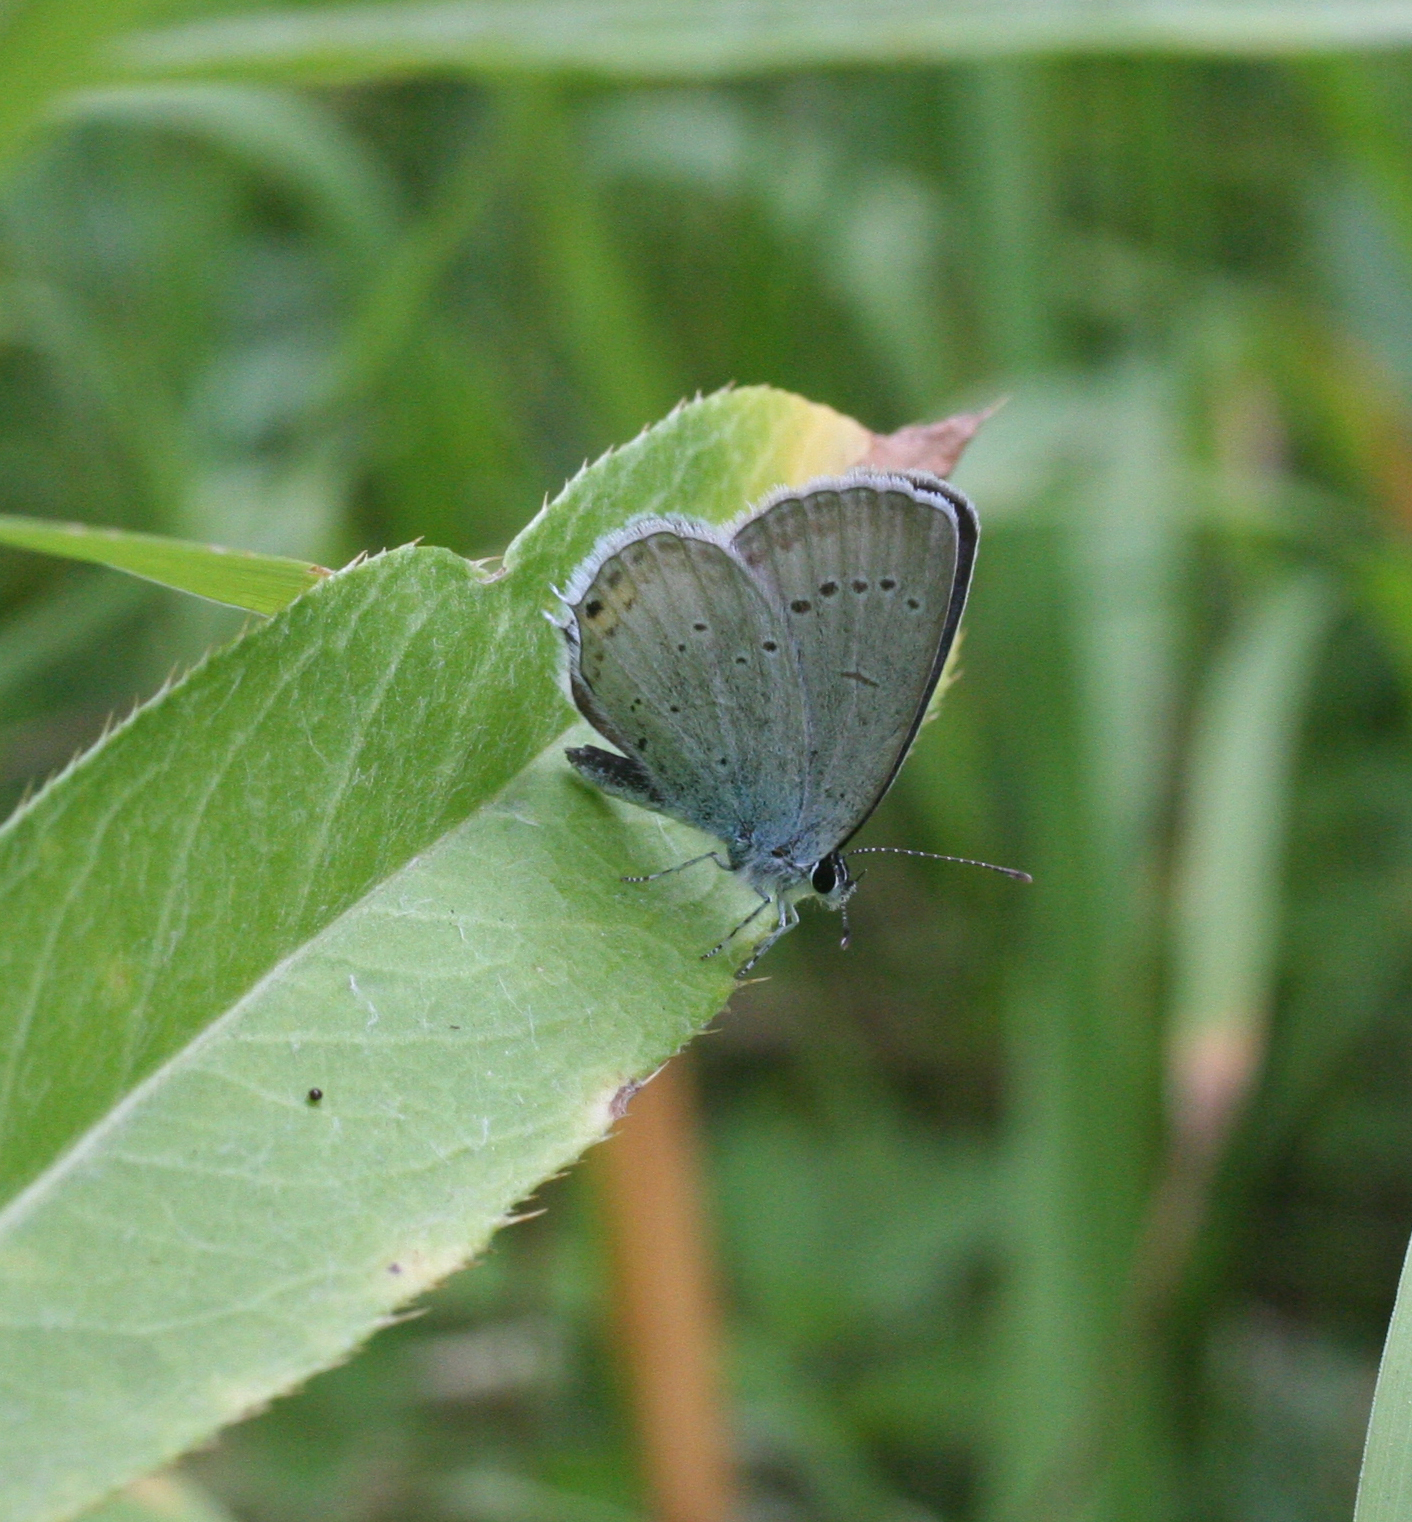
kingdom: Animalia
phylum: Arthropoda
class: Insecta
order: Lepidoptera
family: Lycaenidae
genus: Elkalyce
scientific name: Elkalyce argiades
